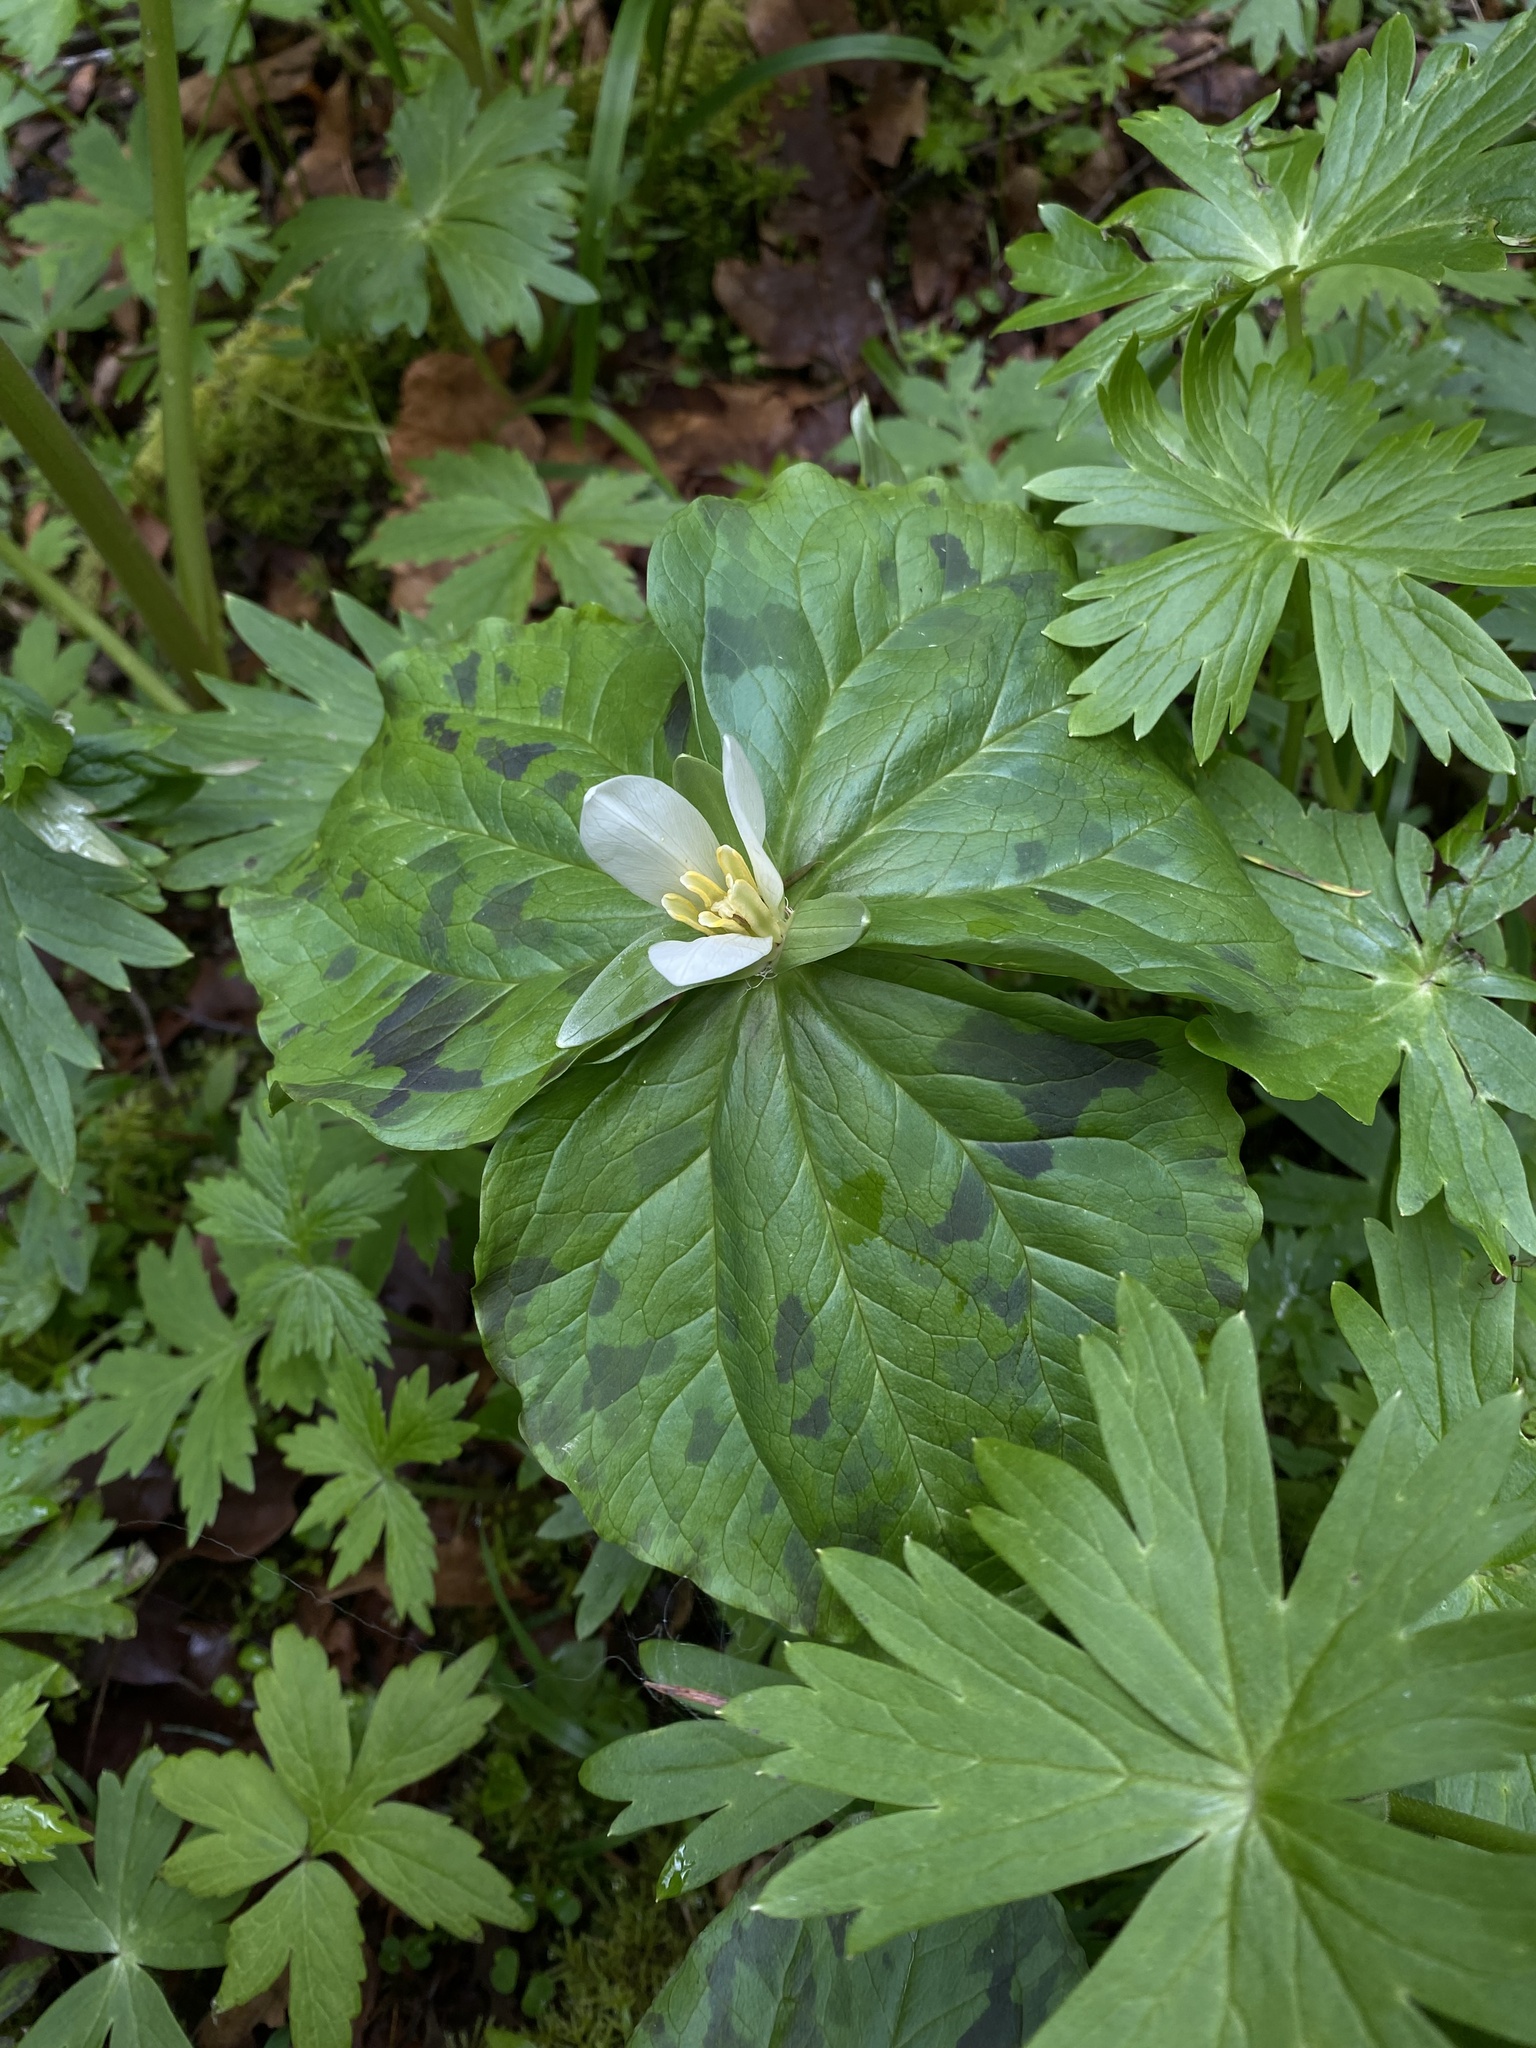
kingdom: Plantae
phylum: Tracheophyta
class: Liliopsida
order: Liliales
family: Melanthiaceae
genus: Trillium
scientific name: Trillium albidum
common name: Freeman's trillium
